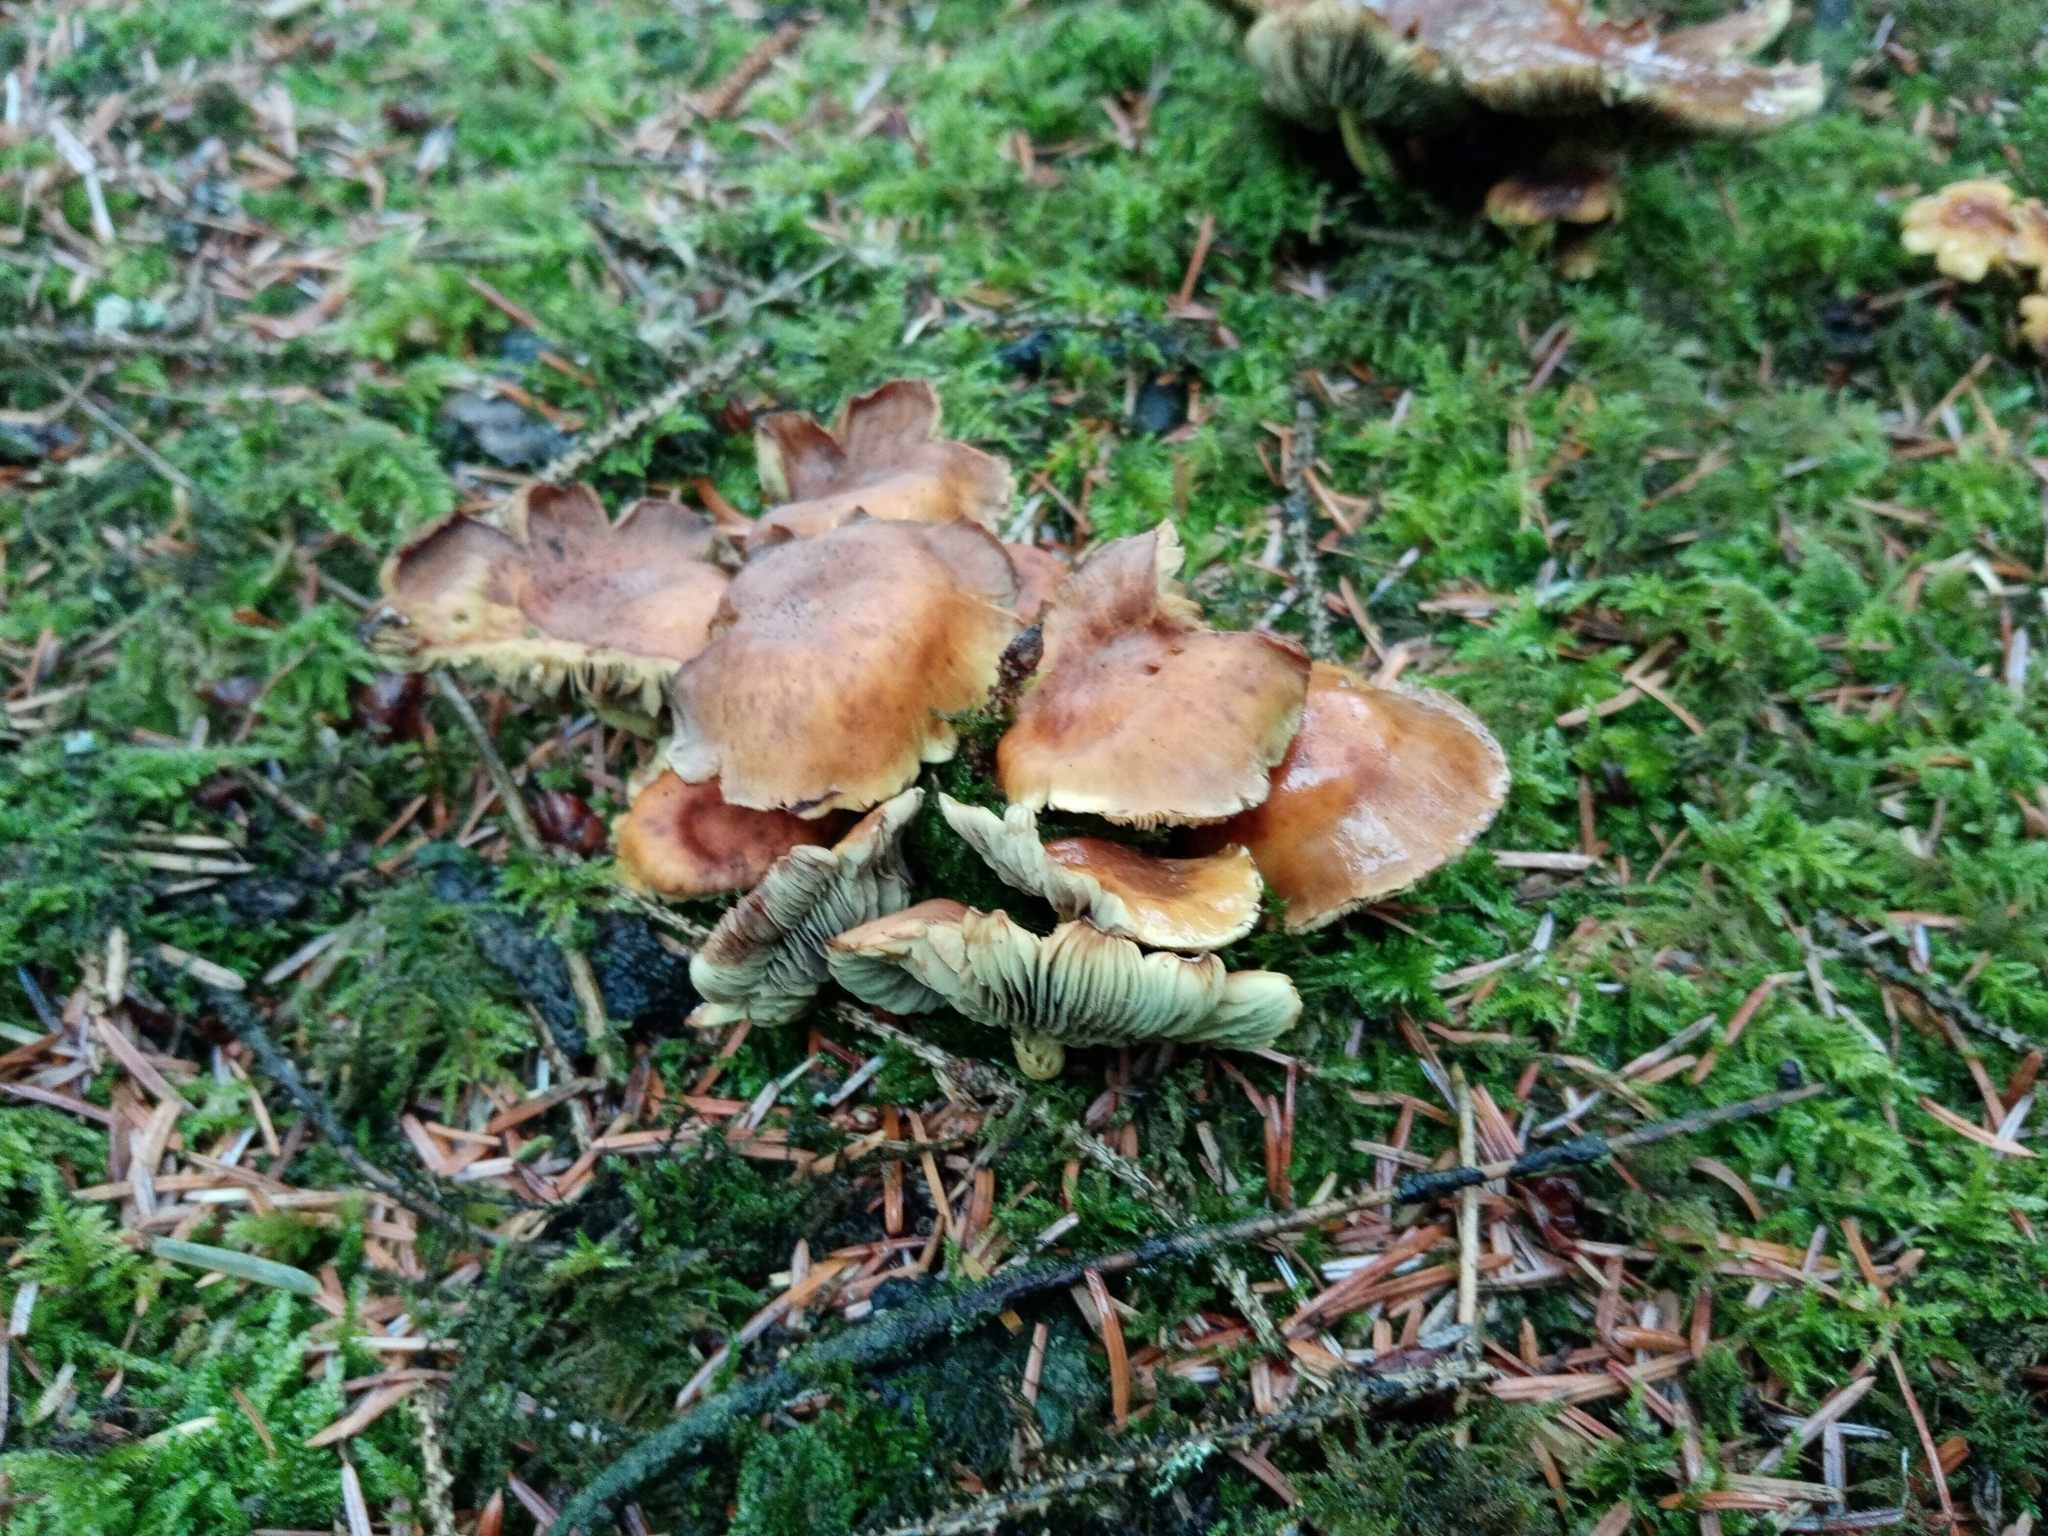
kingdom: Fungi
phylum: Basidiomycota
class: Agaricomycetes
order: Agaricales
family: Strophariaceae
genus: Hypholoma
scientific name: Hypholoma fasciculare
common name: Sulphur tuft
